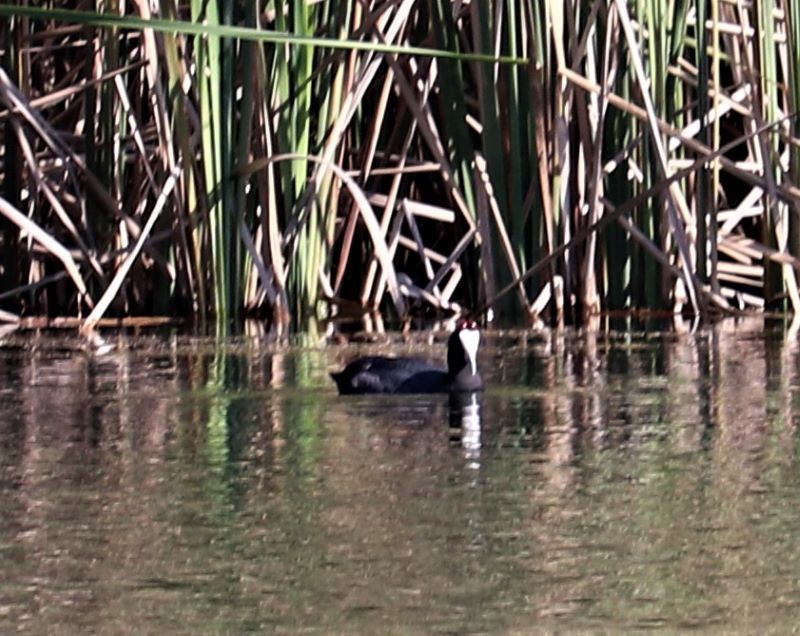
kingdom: Animalia
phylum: Chordata
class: Aves
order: Gruiformes
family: Rallidae
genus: Fulica
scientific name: Fulica cristata
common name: Red-knobbed coot
